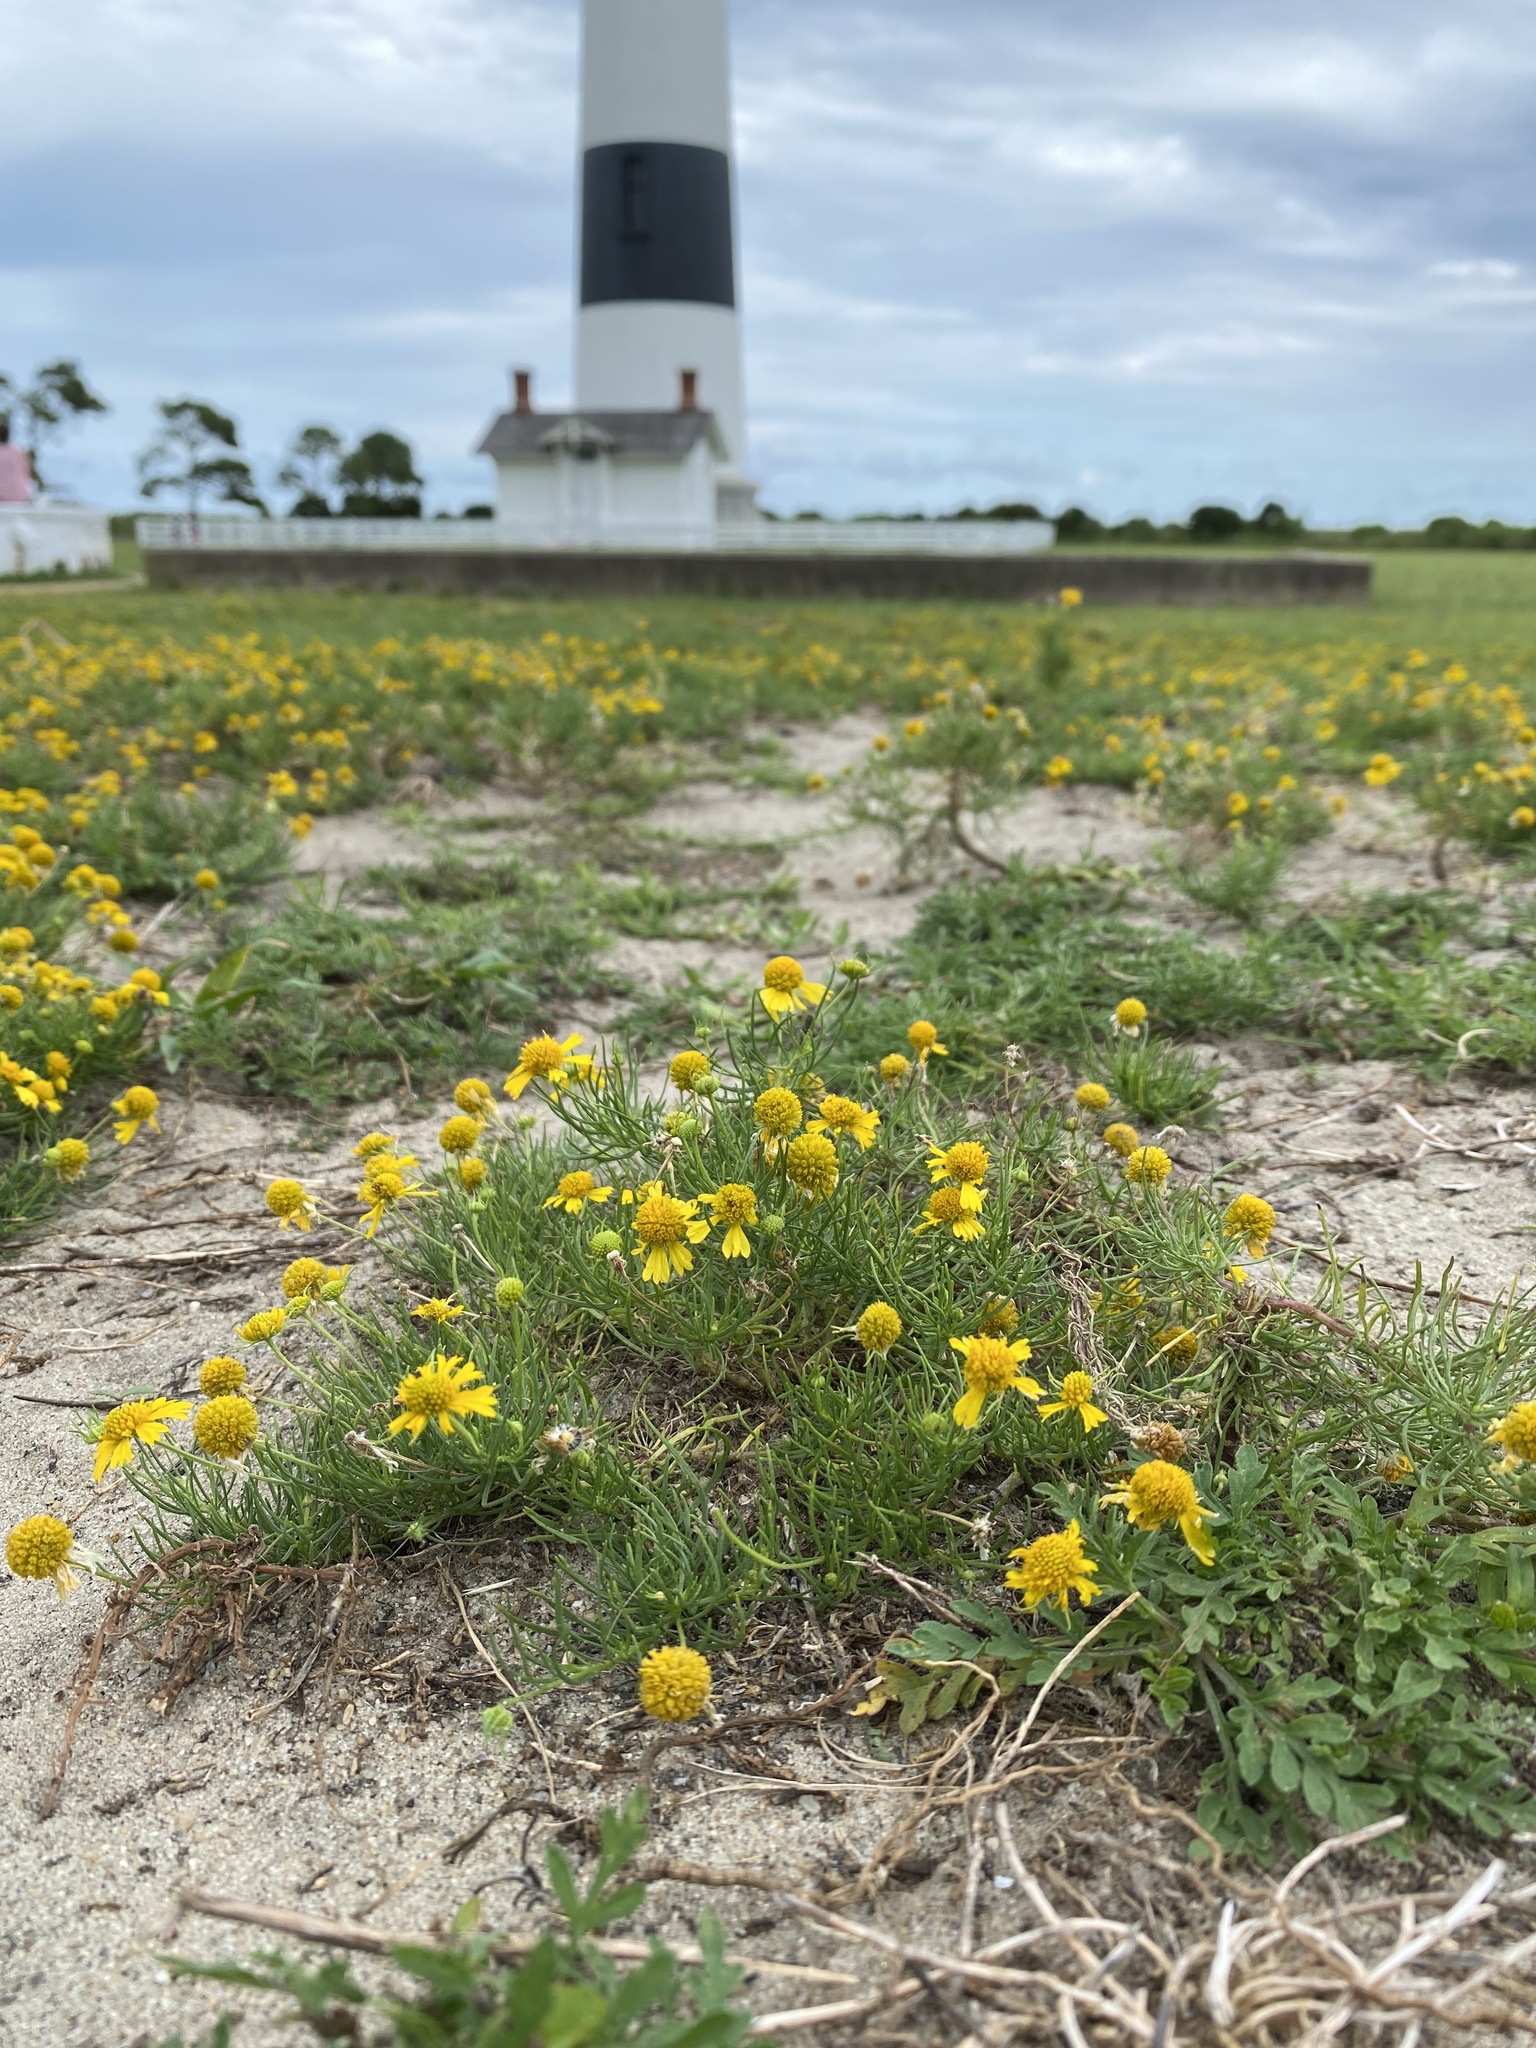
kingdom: Plantae
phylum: Tracheophyta
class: Magnoliopsida
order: Asterales
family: Asteraceae
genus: Helenium
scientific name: Helenium amarum
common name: Bitter sneezeweed
